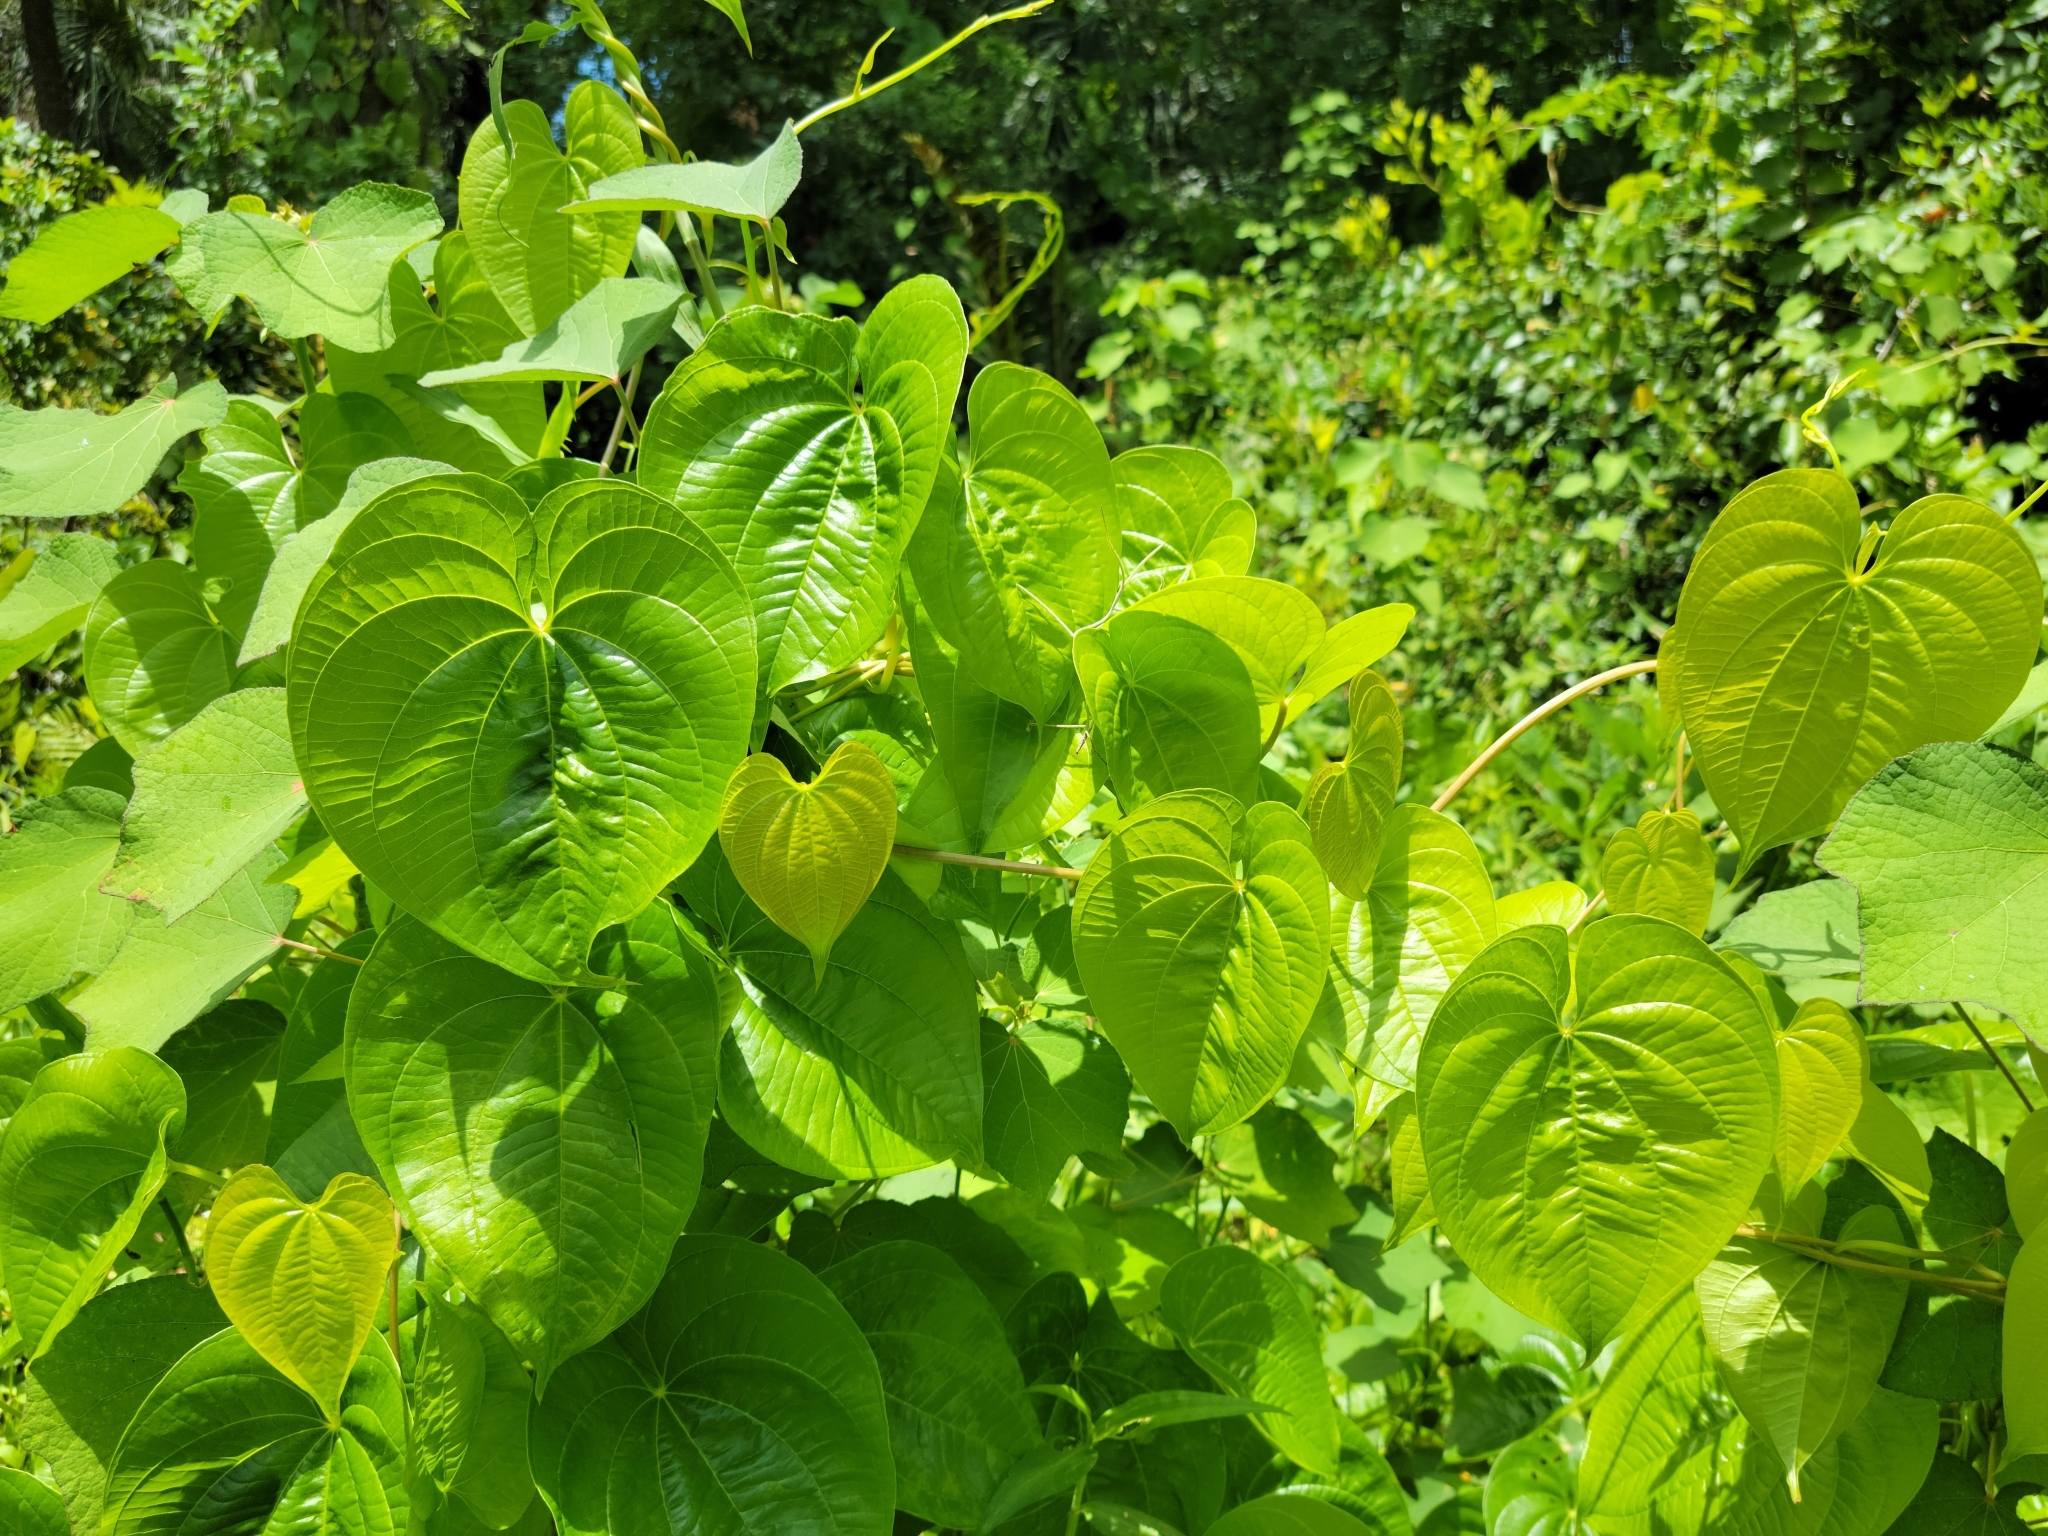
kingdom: Plantae
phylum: Tracheophyta
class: Liliopsida
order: Dioscoreales
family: Dioscoreaceae
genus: Dioscorea
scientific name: Dioscorea bulbifera
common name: Air yam
